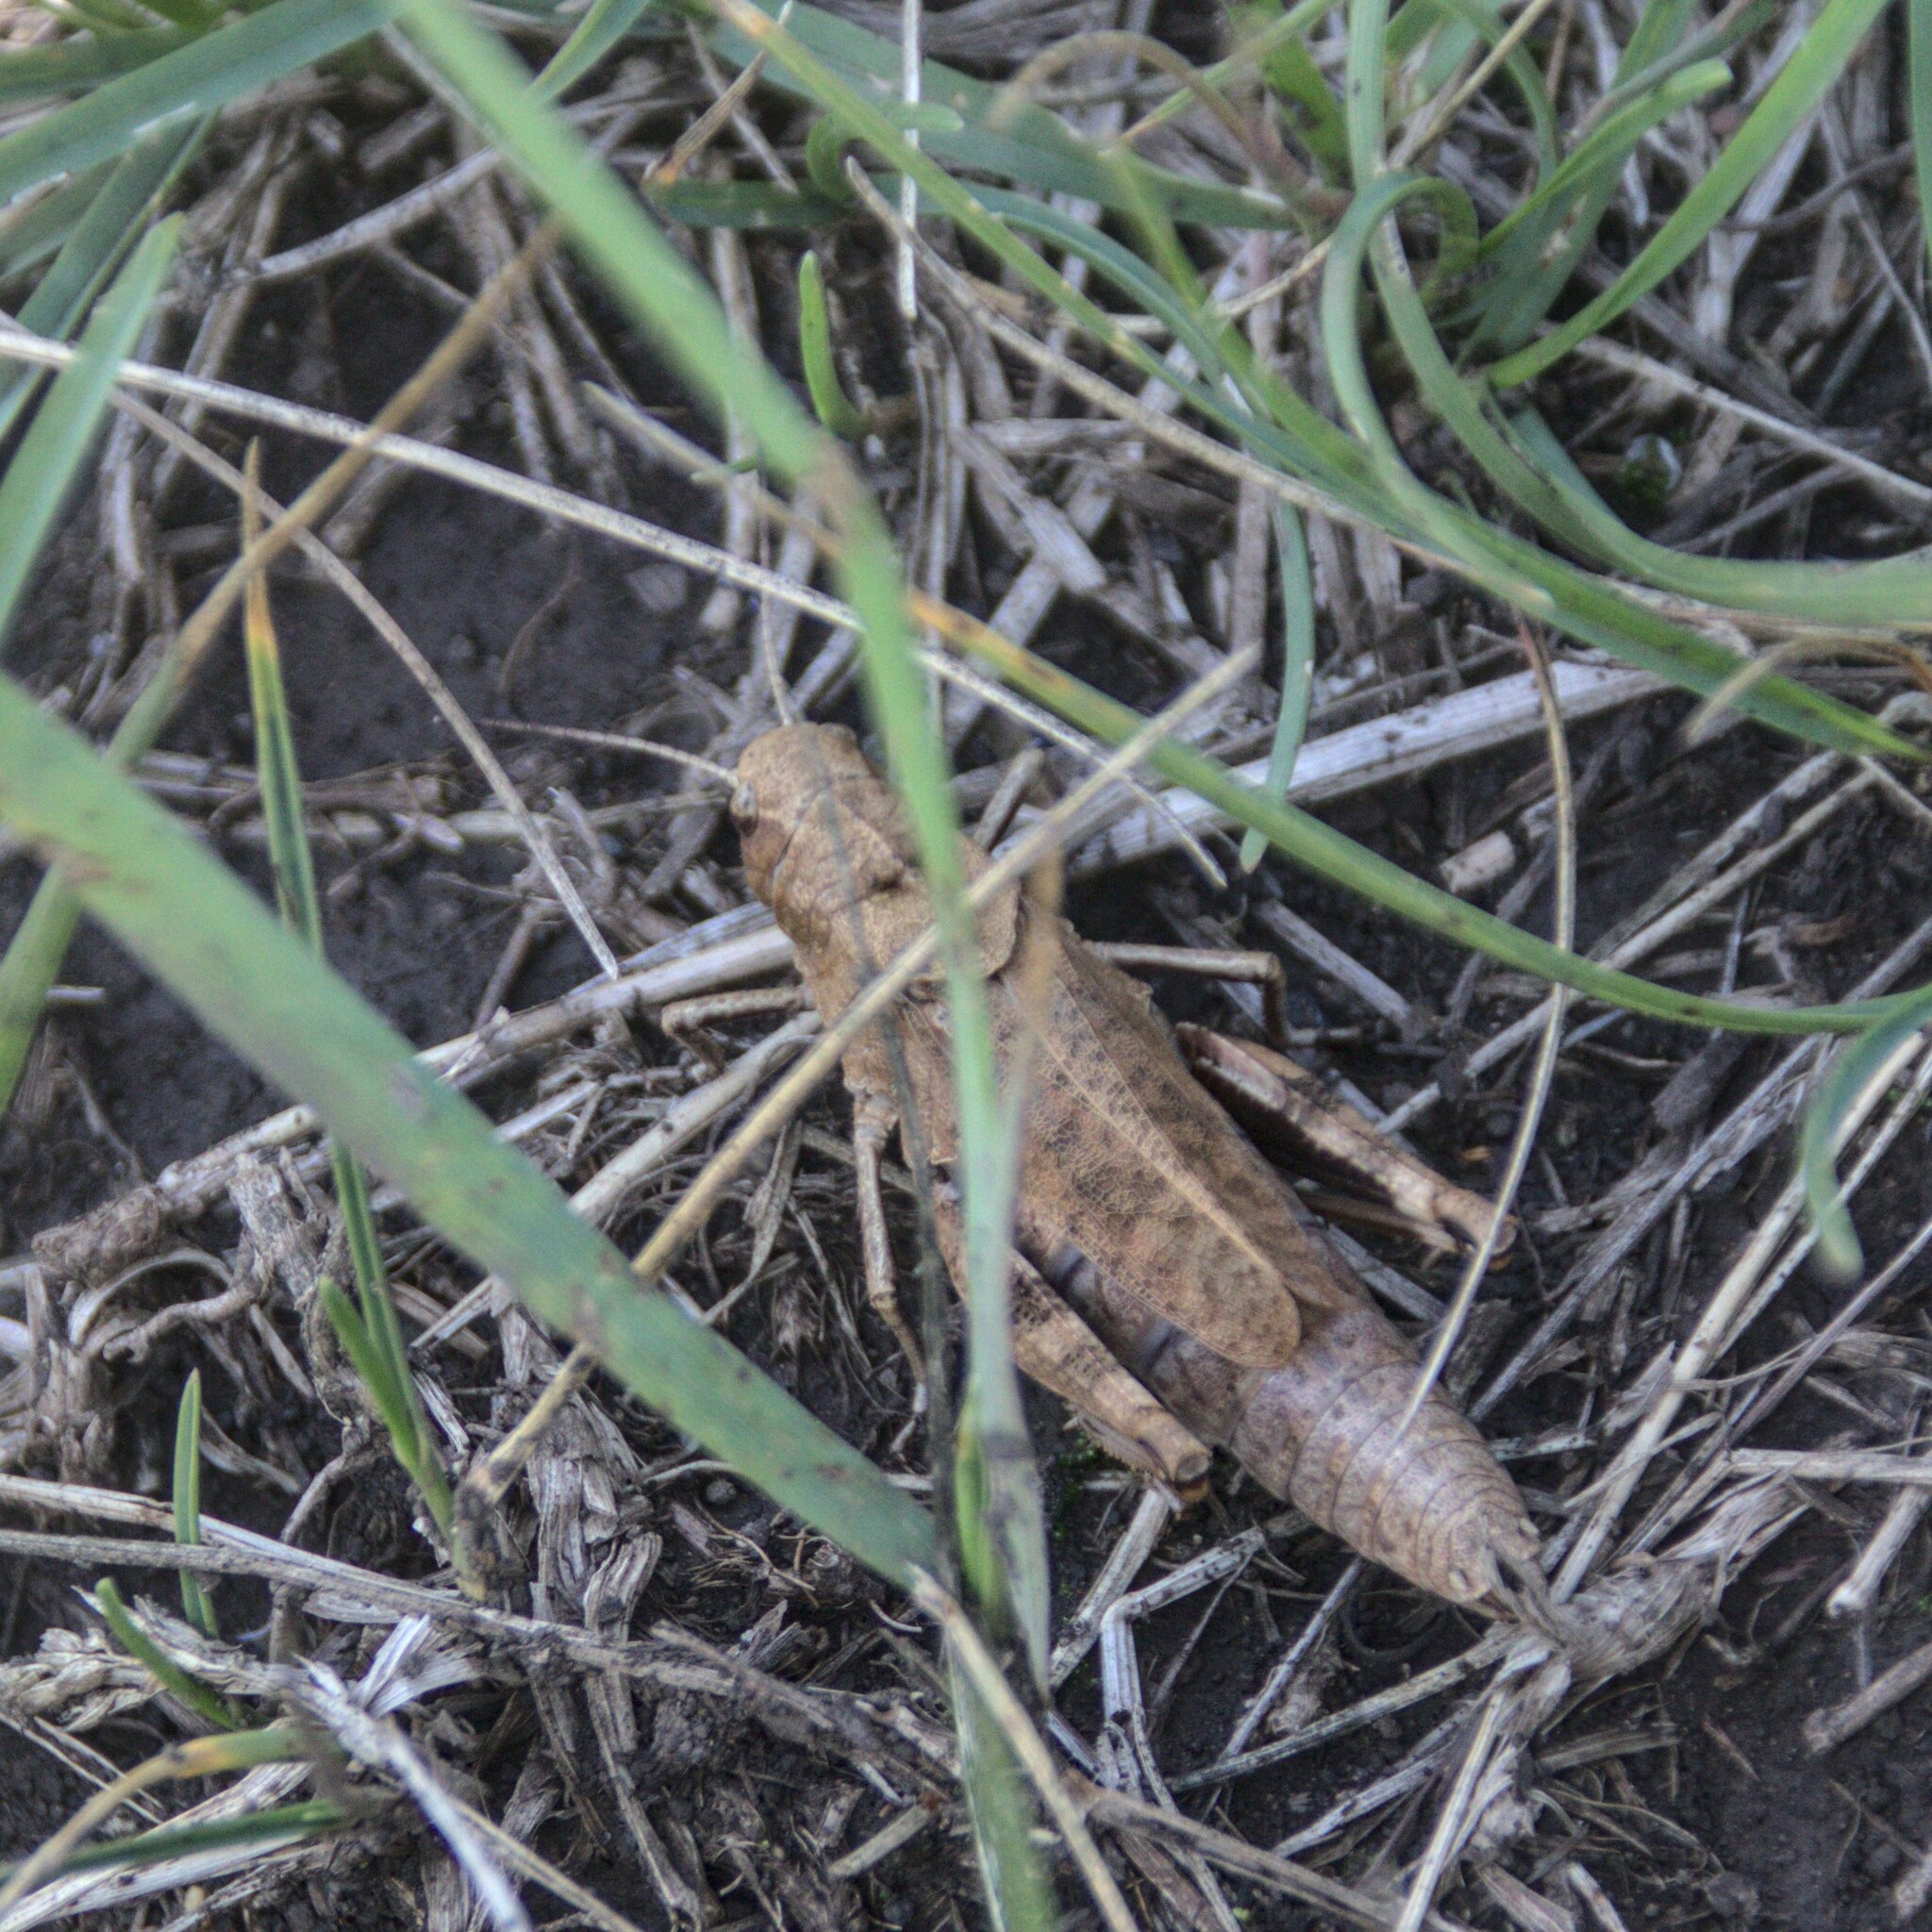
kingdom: Animalia
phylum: Arthropoda
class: Insecta
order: Orthoptera
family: Acrididae
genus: Psophus
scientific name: Psophus stridulus
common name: Rattle grasshopper
